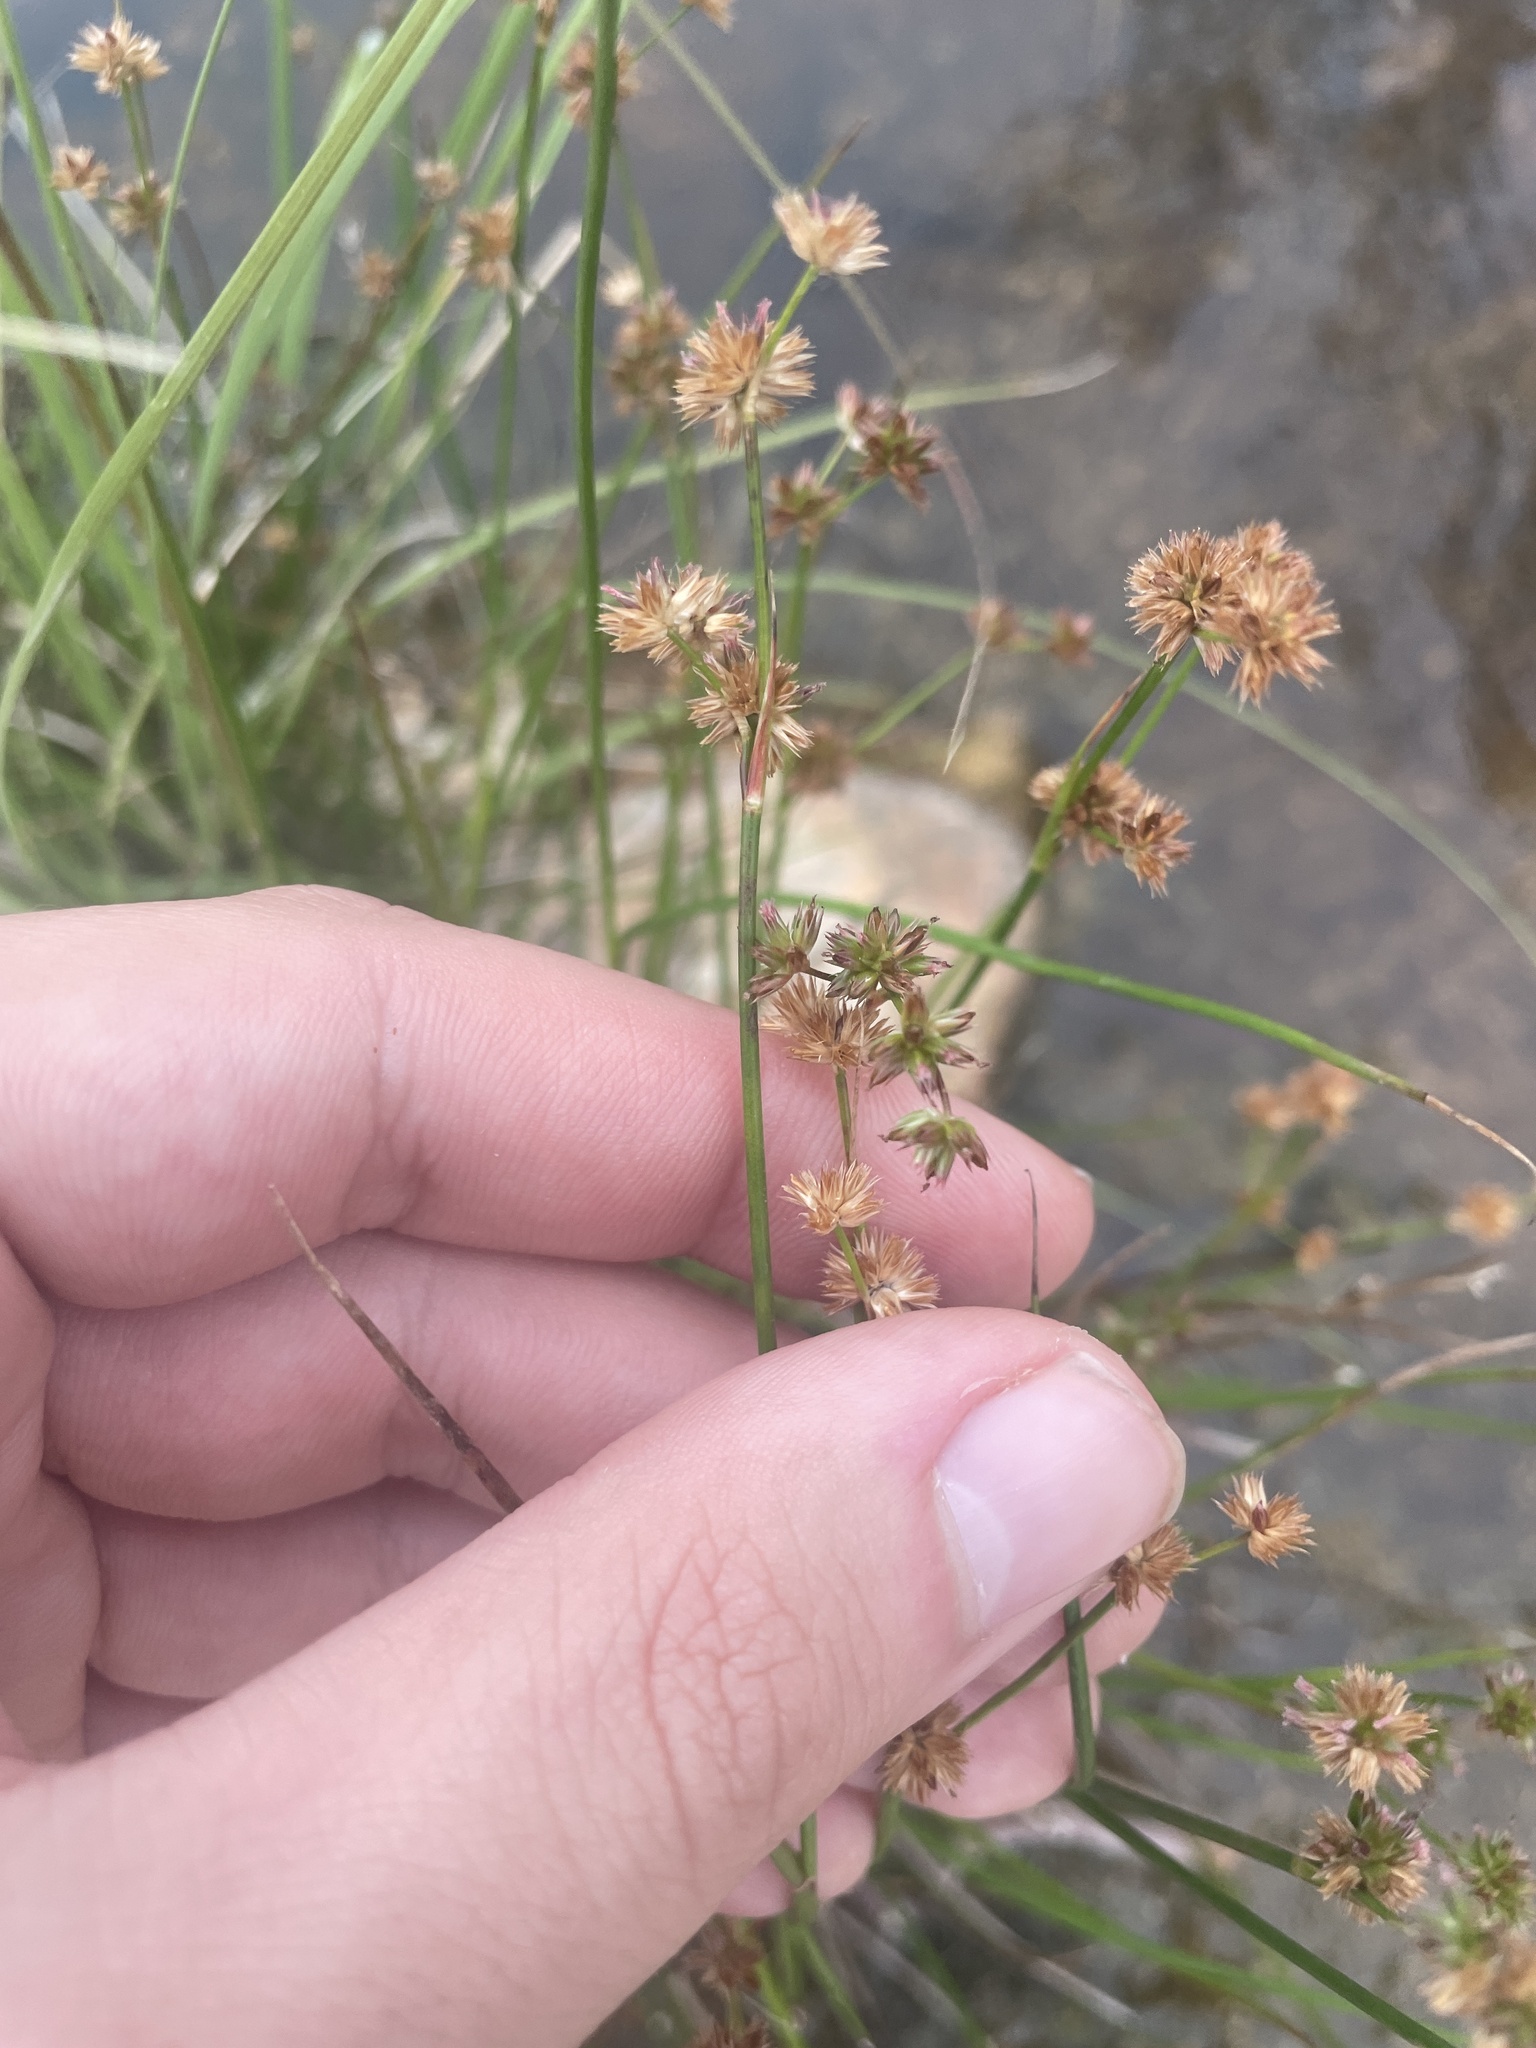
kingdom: Plantae
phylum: Tracheophyta
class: Liliopsida
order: Poales
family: Juncaceae
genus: Juncus
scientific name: Juncus xiphioides
